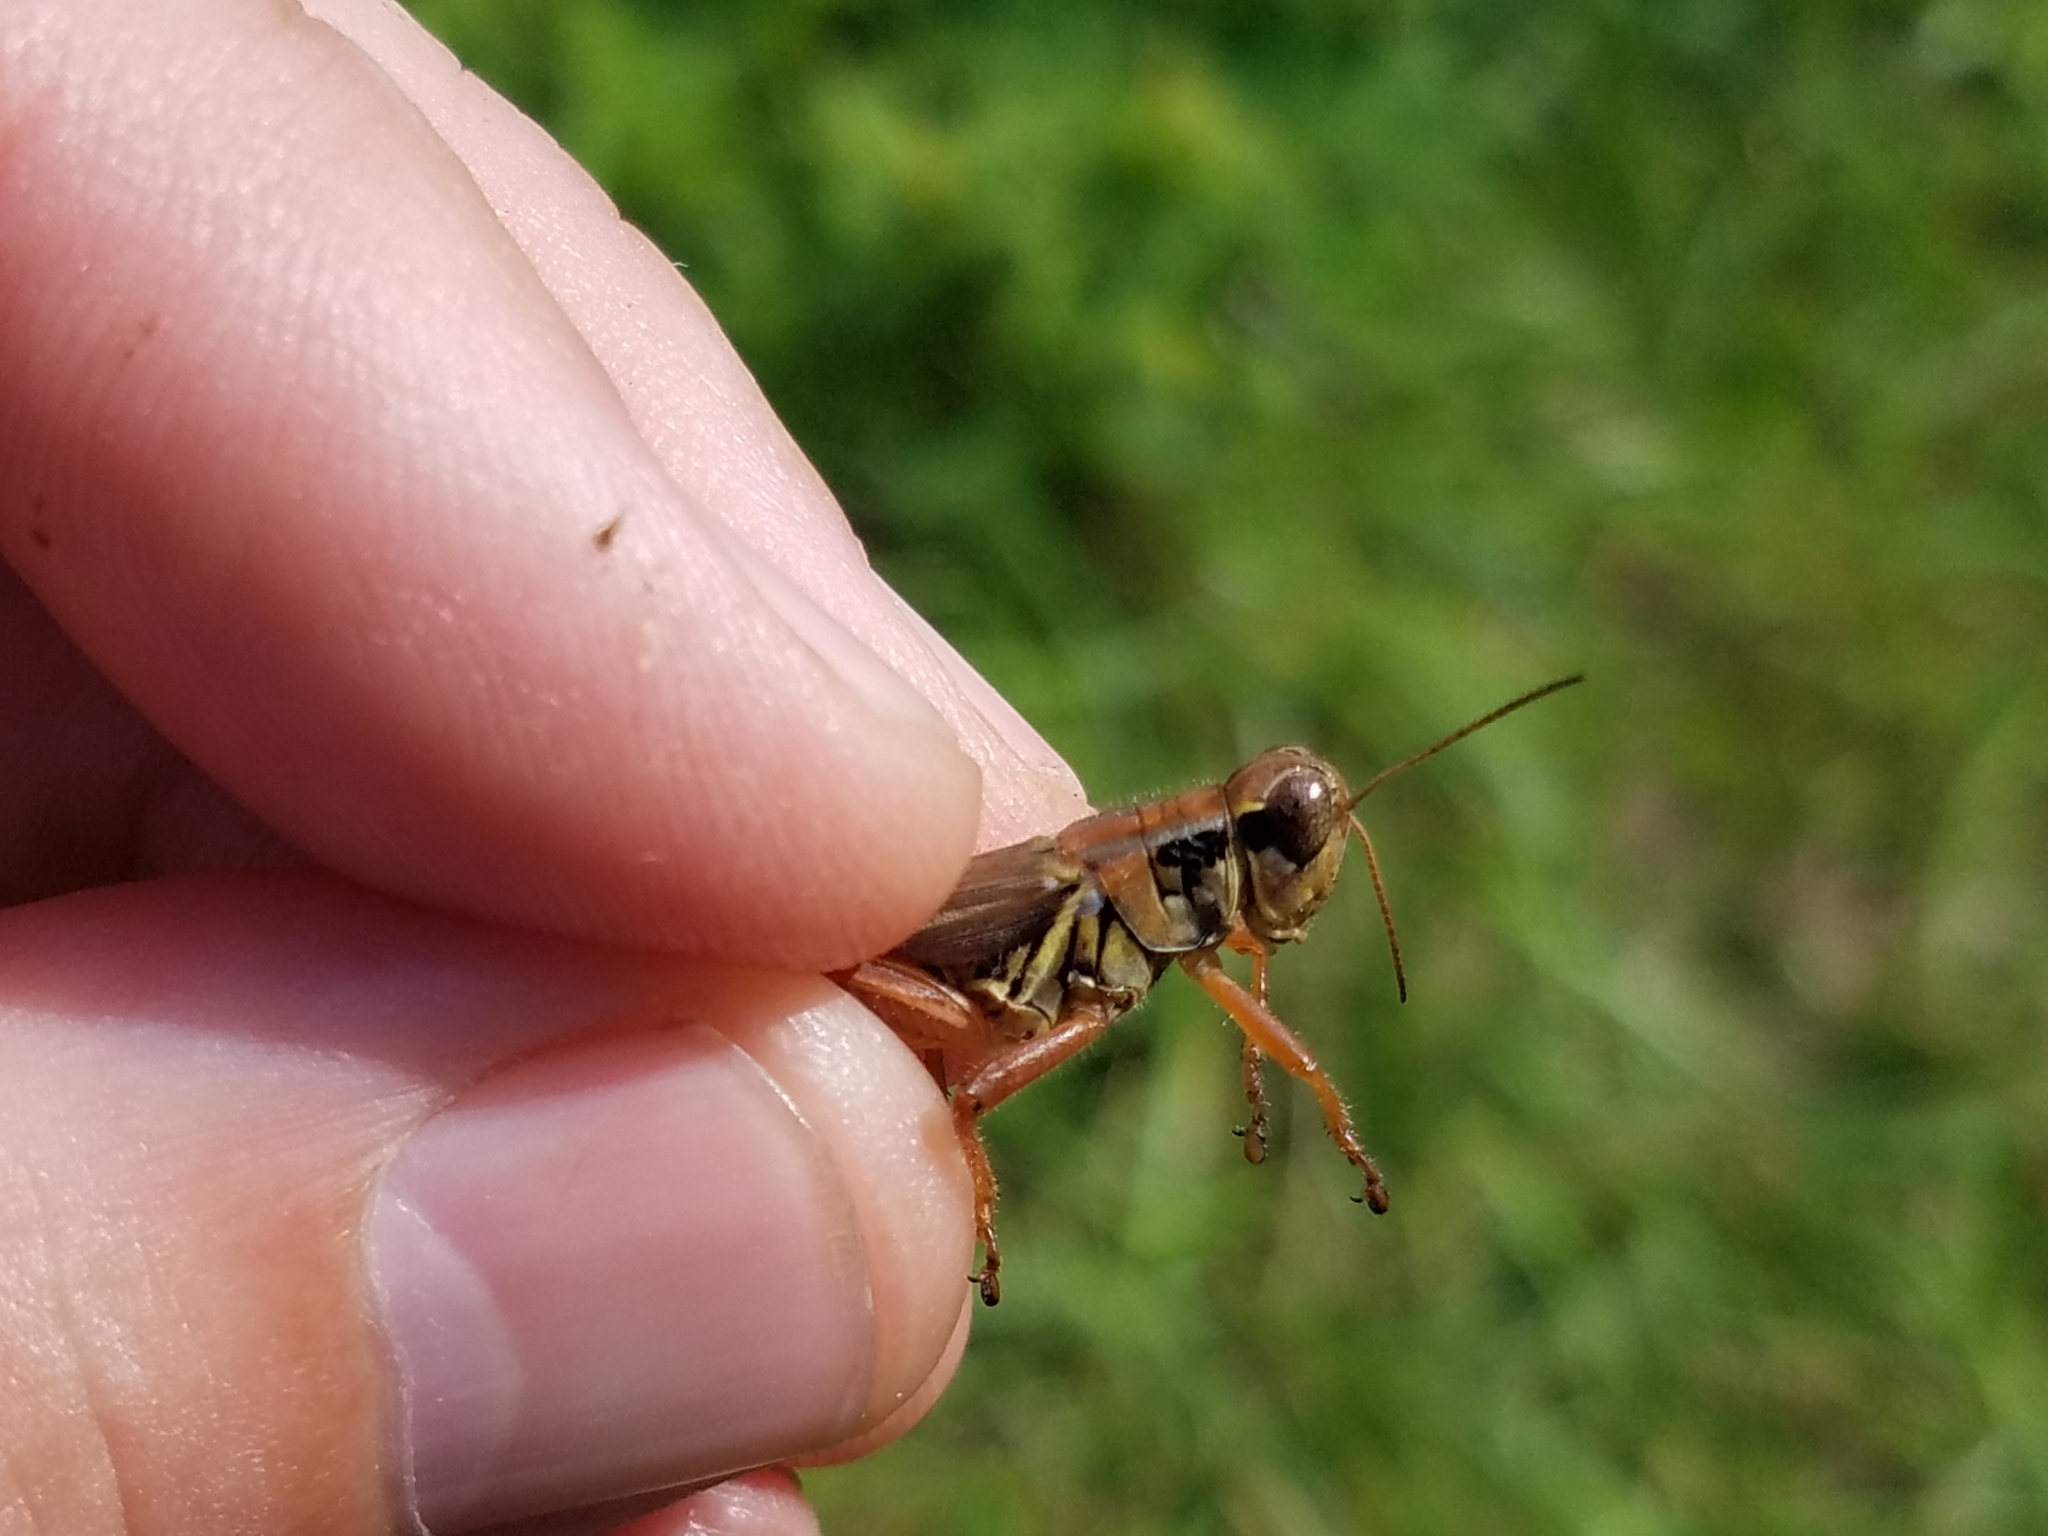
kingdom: Animalia
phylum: Arthropoda
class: Insecta
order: Orthoptera
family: Acrididae
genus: Melanoplus
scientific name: Melanoplus femurrubrum
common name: Red-legged grasshopper
